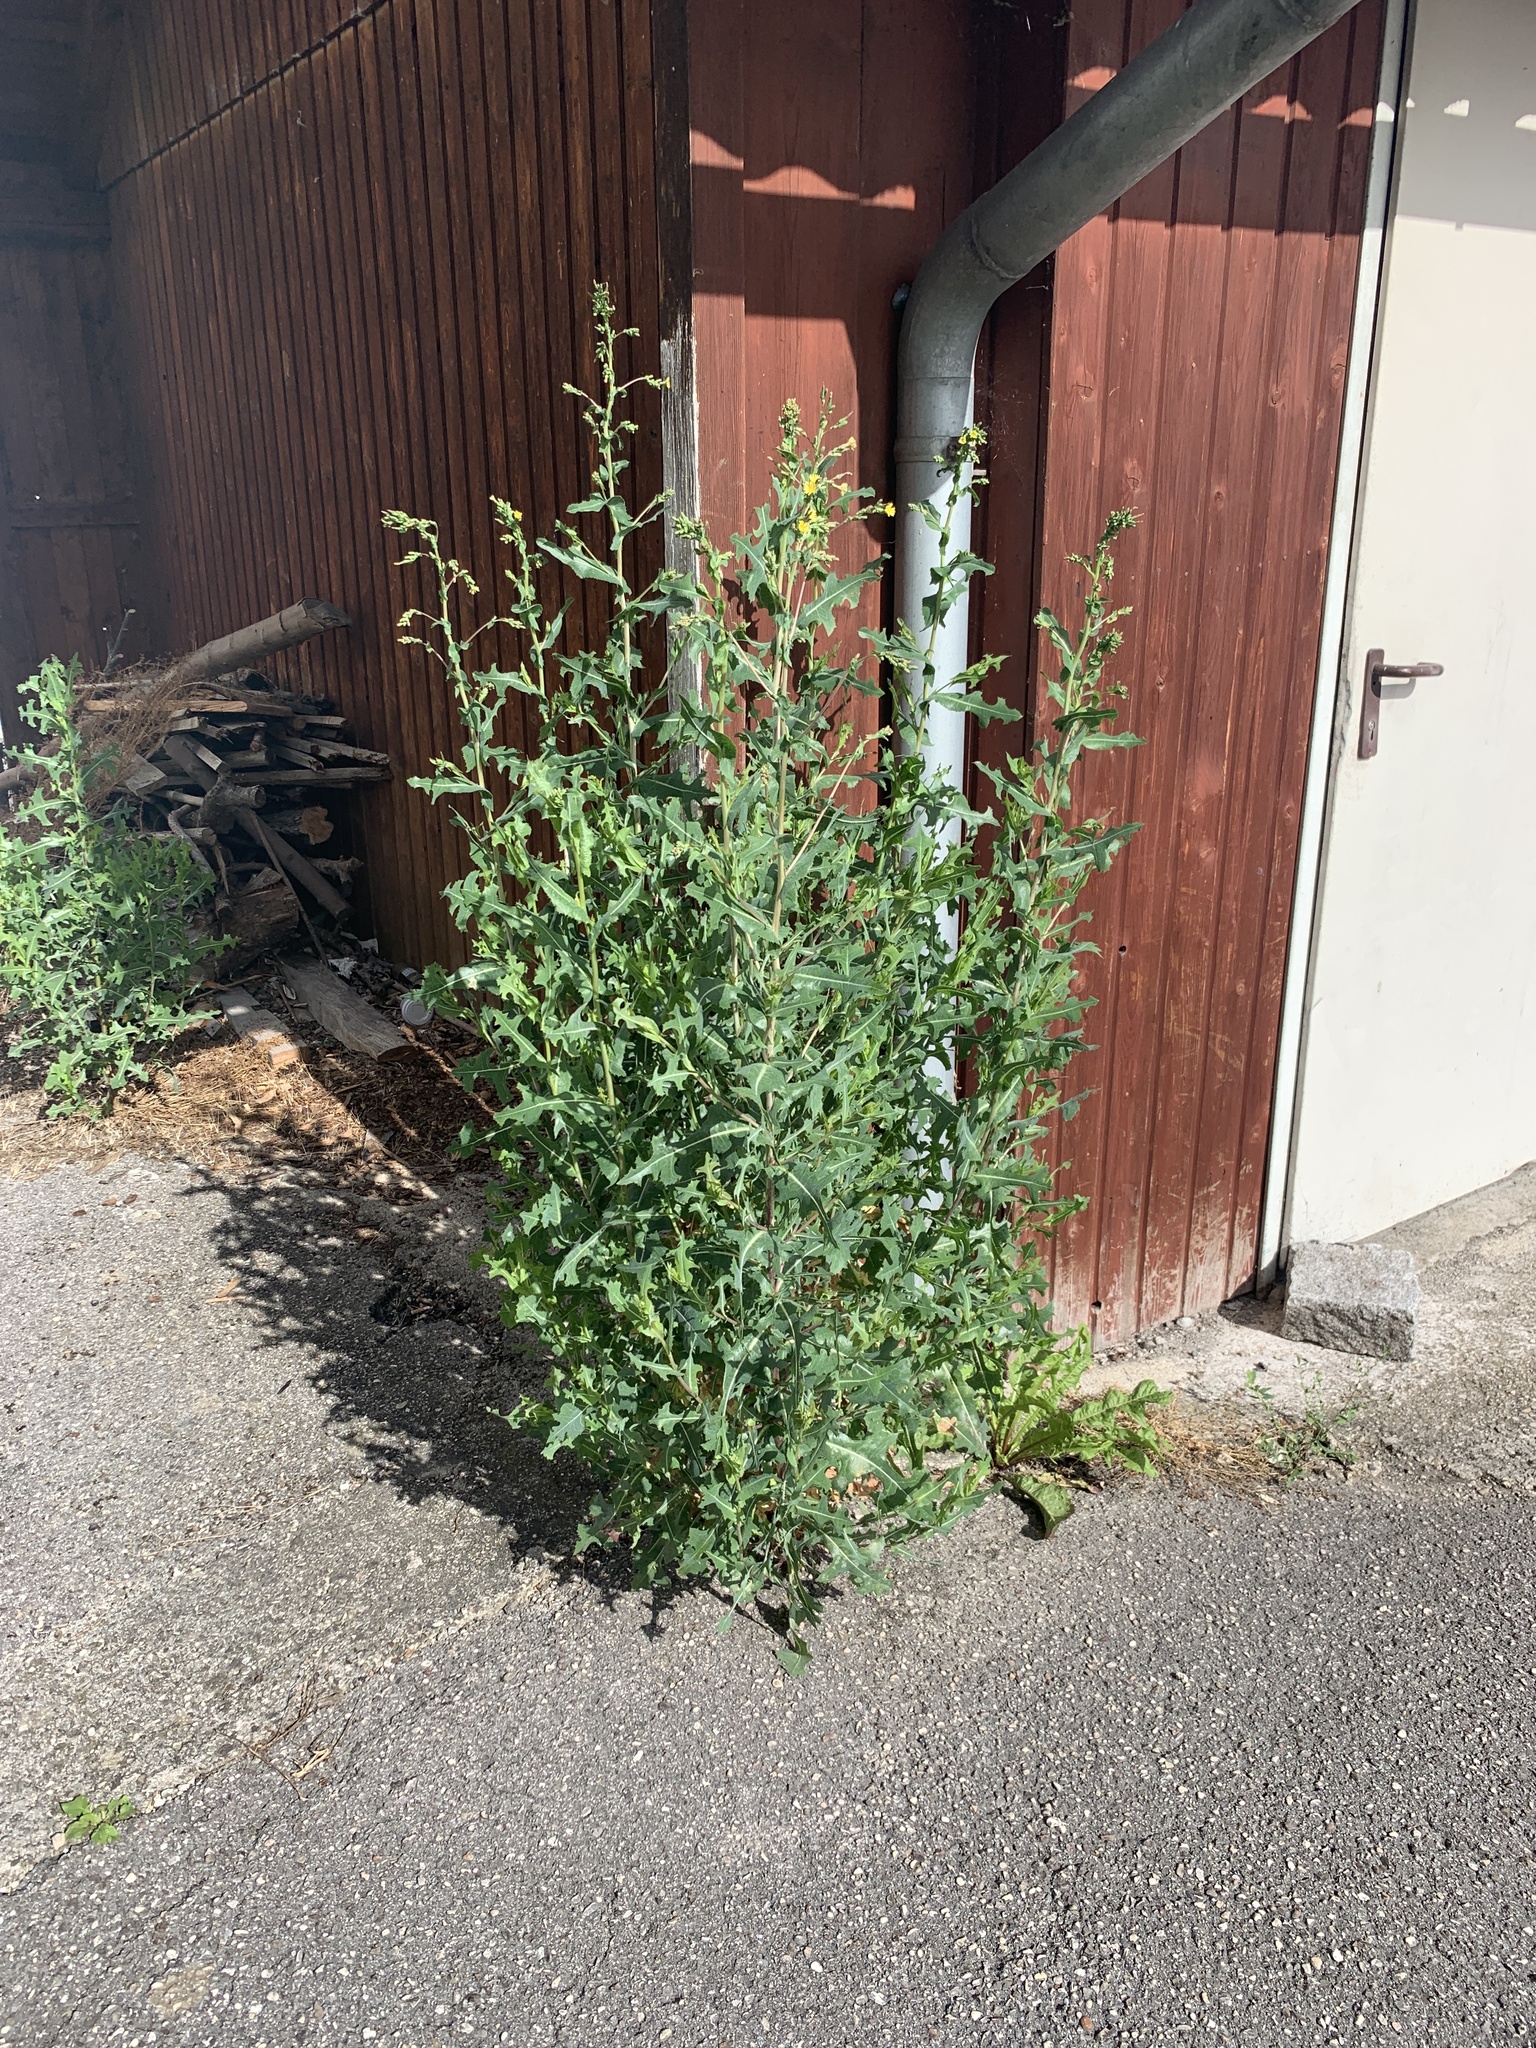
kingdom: Plantae
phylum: Tracheophyta
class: Magnoliopsida
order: Asterales
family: Asteraceae
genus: Lactuca
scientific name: Lactuca serriola
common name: Prickly lettuce
